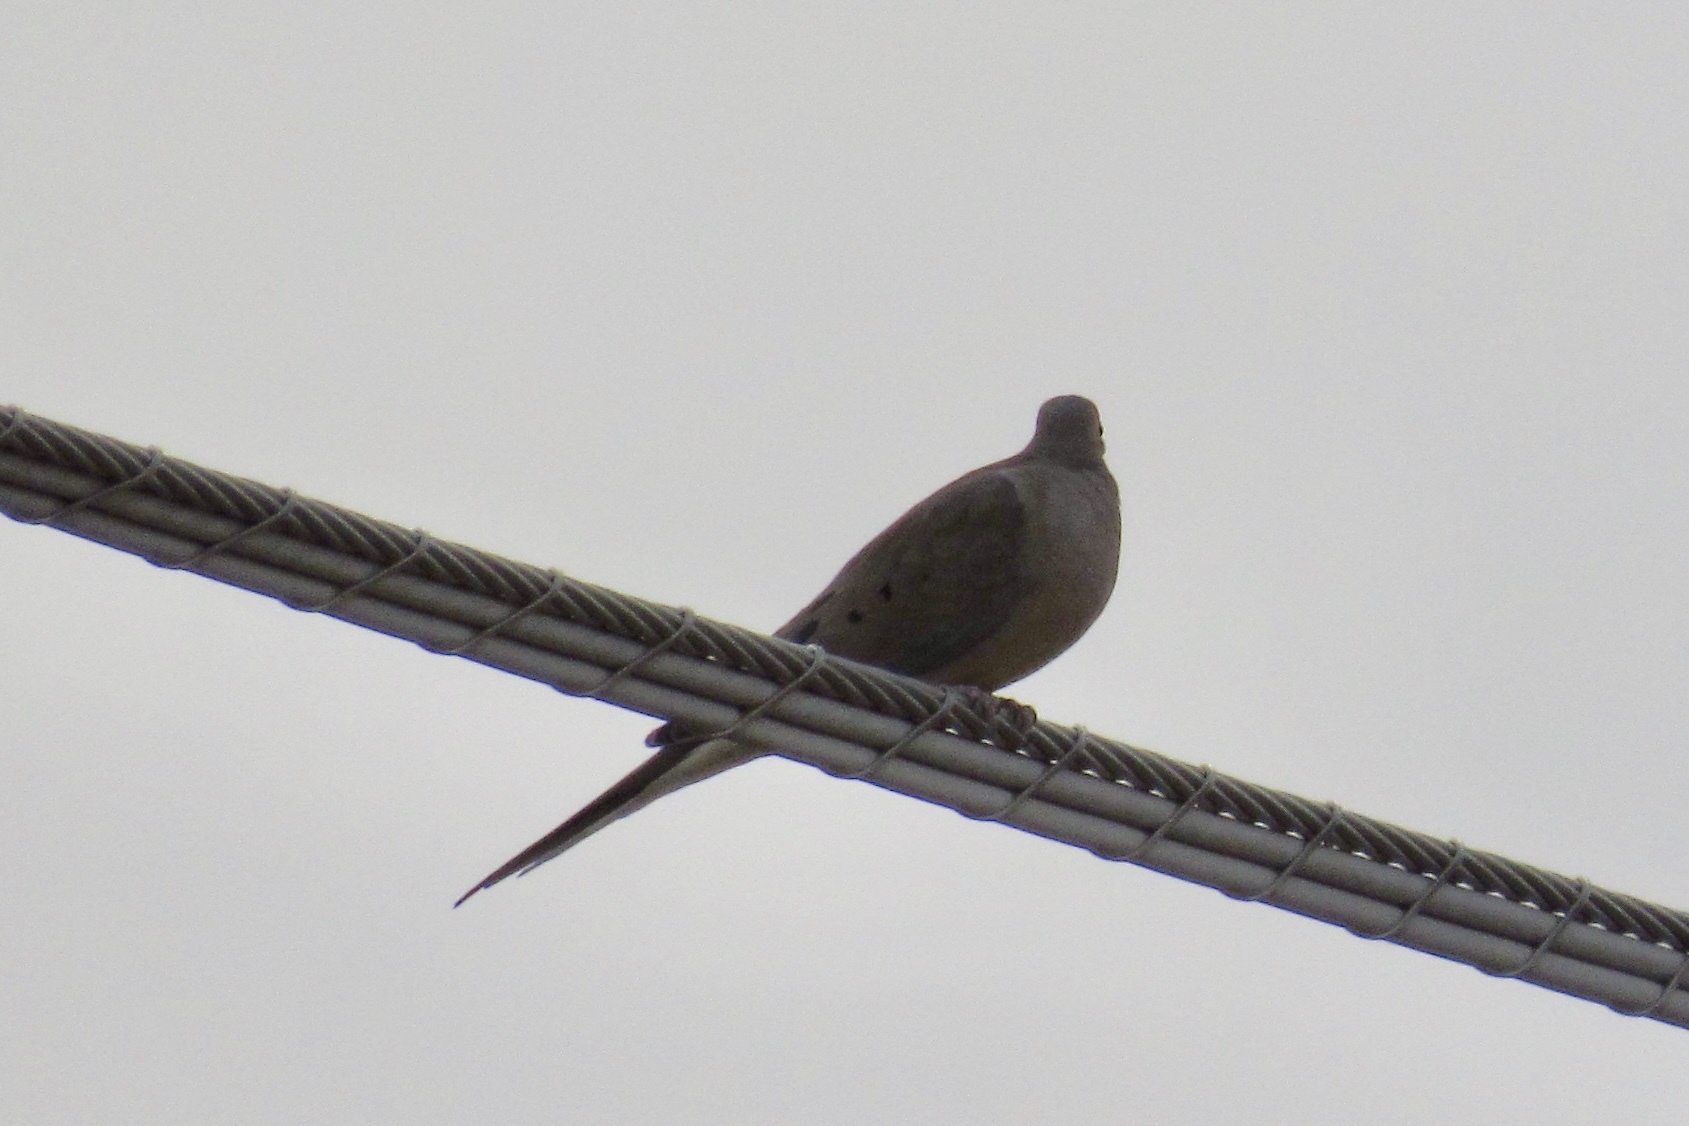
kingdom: Animalia
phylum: Chordata
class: Aves
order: Columbiformes
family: Columbidae
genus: Zenaida
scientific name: Zenaida macroura
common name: Mourning dove
